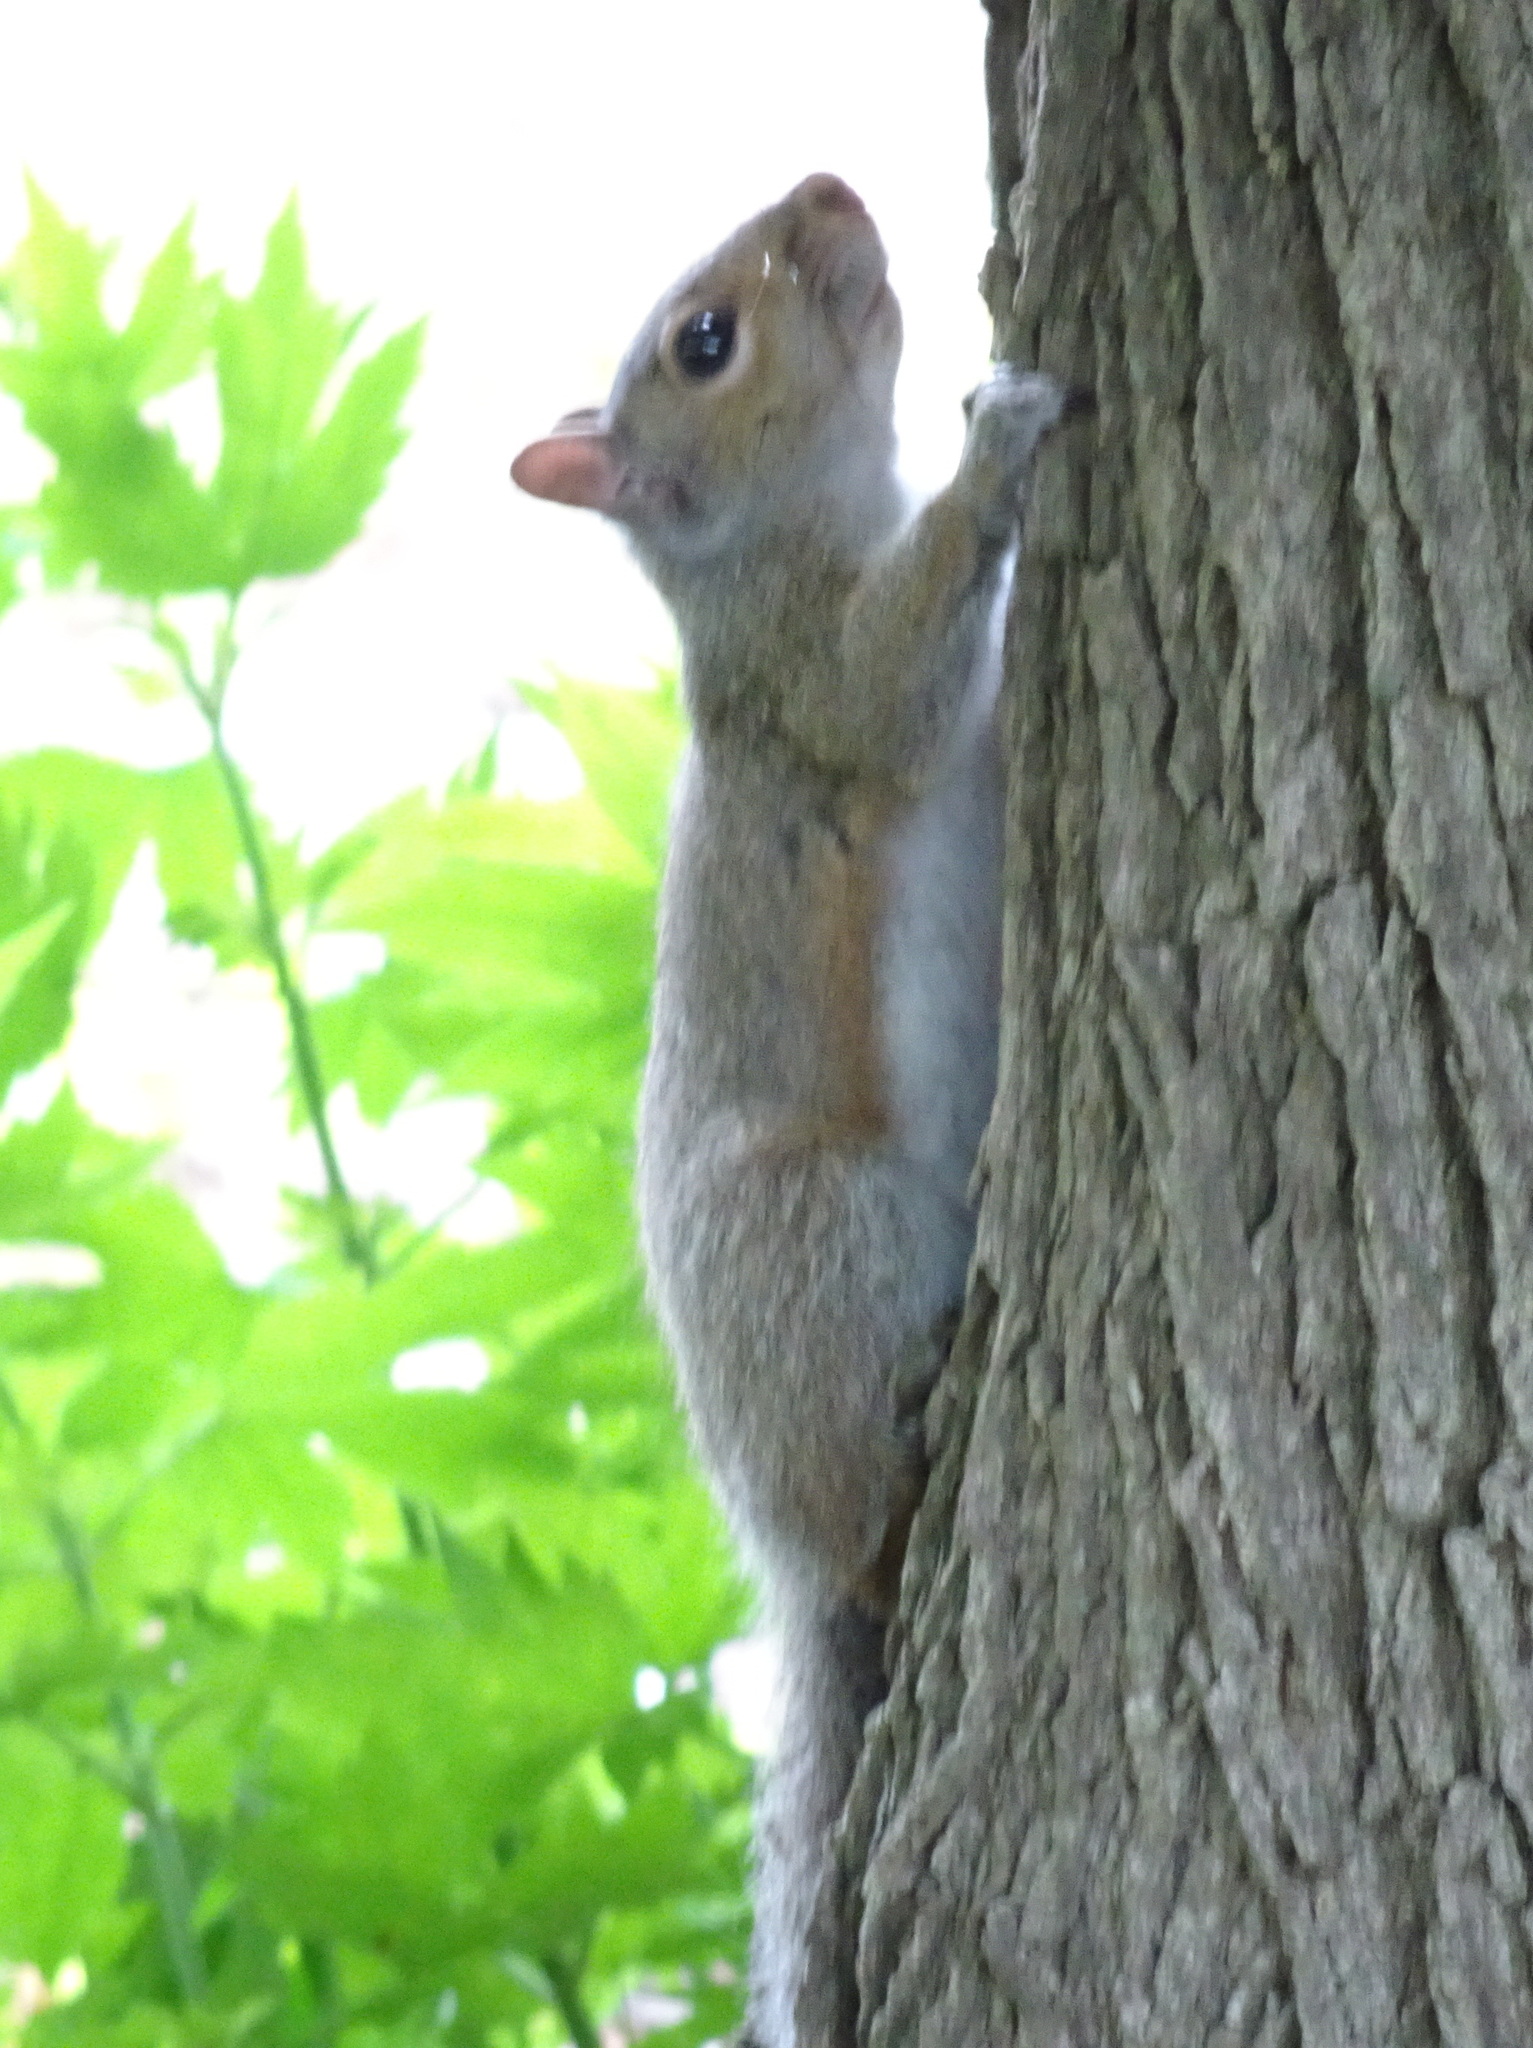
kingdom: Animalia
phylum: Chordata
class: Mammalia
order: Rodentia
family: Sciuridae
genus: Sciurus
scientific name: Sciurus carolinensis
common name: Eastern gray squirrel
